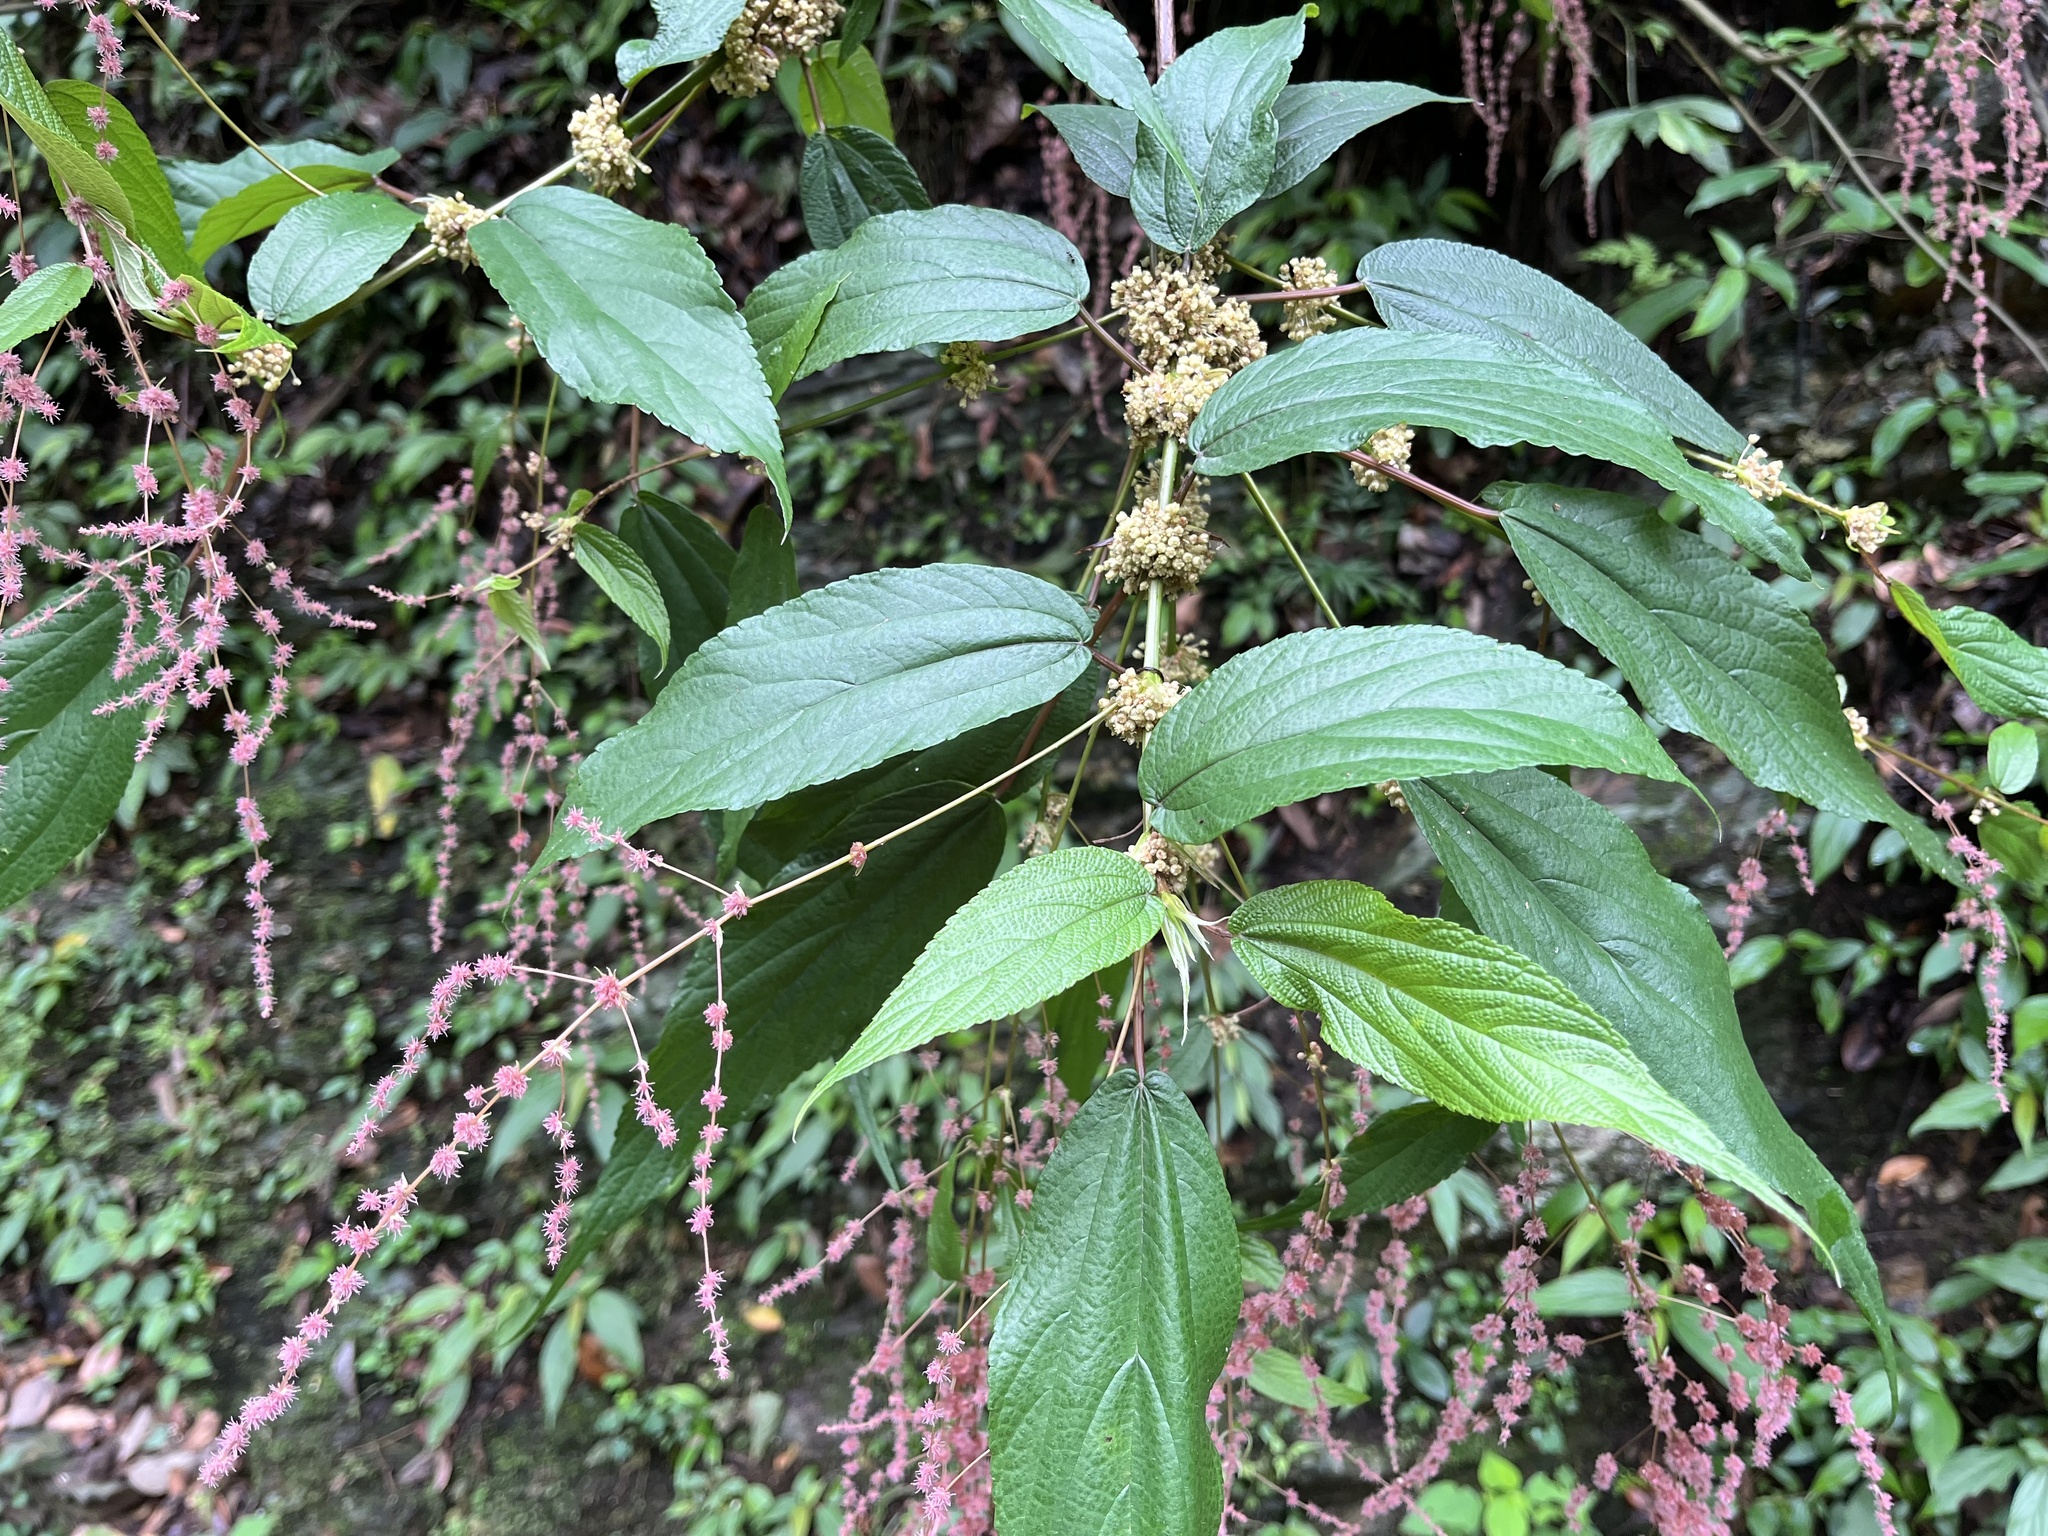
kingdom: Plantae
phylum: Tracheophyta
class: Magnoliopsida
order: Rosales
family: Urticaceae
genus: Boehmeria
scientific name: Boehmeria zollingeriana
